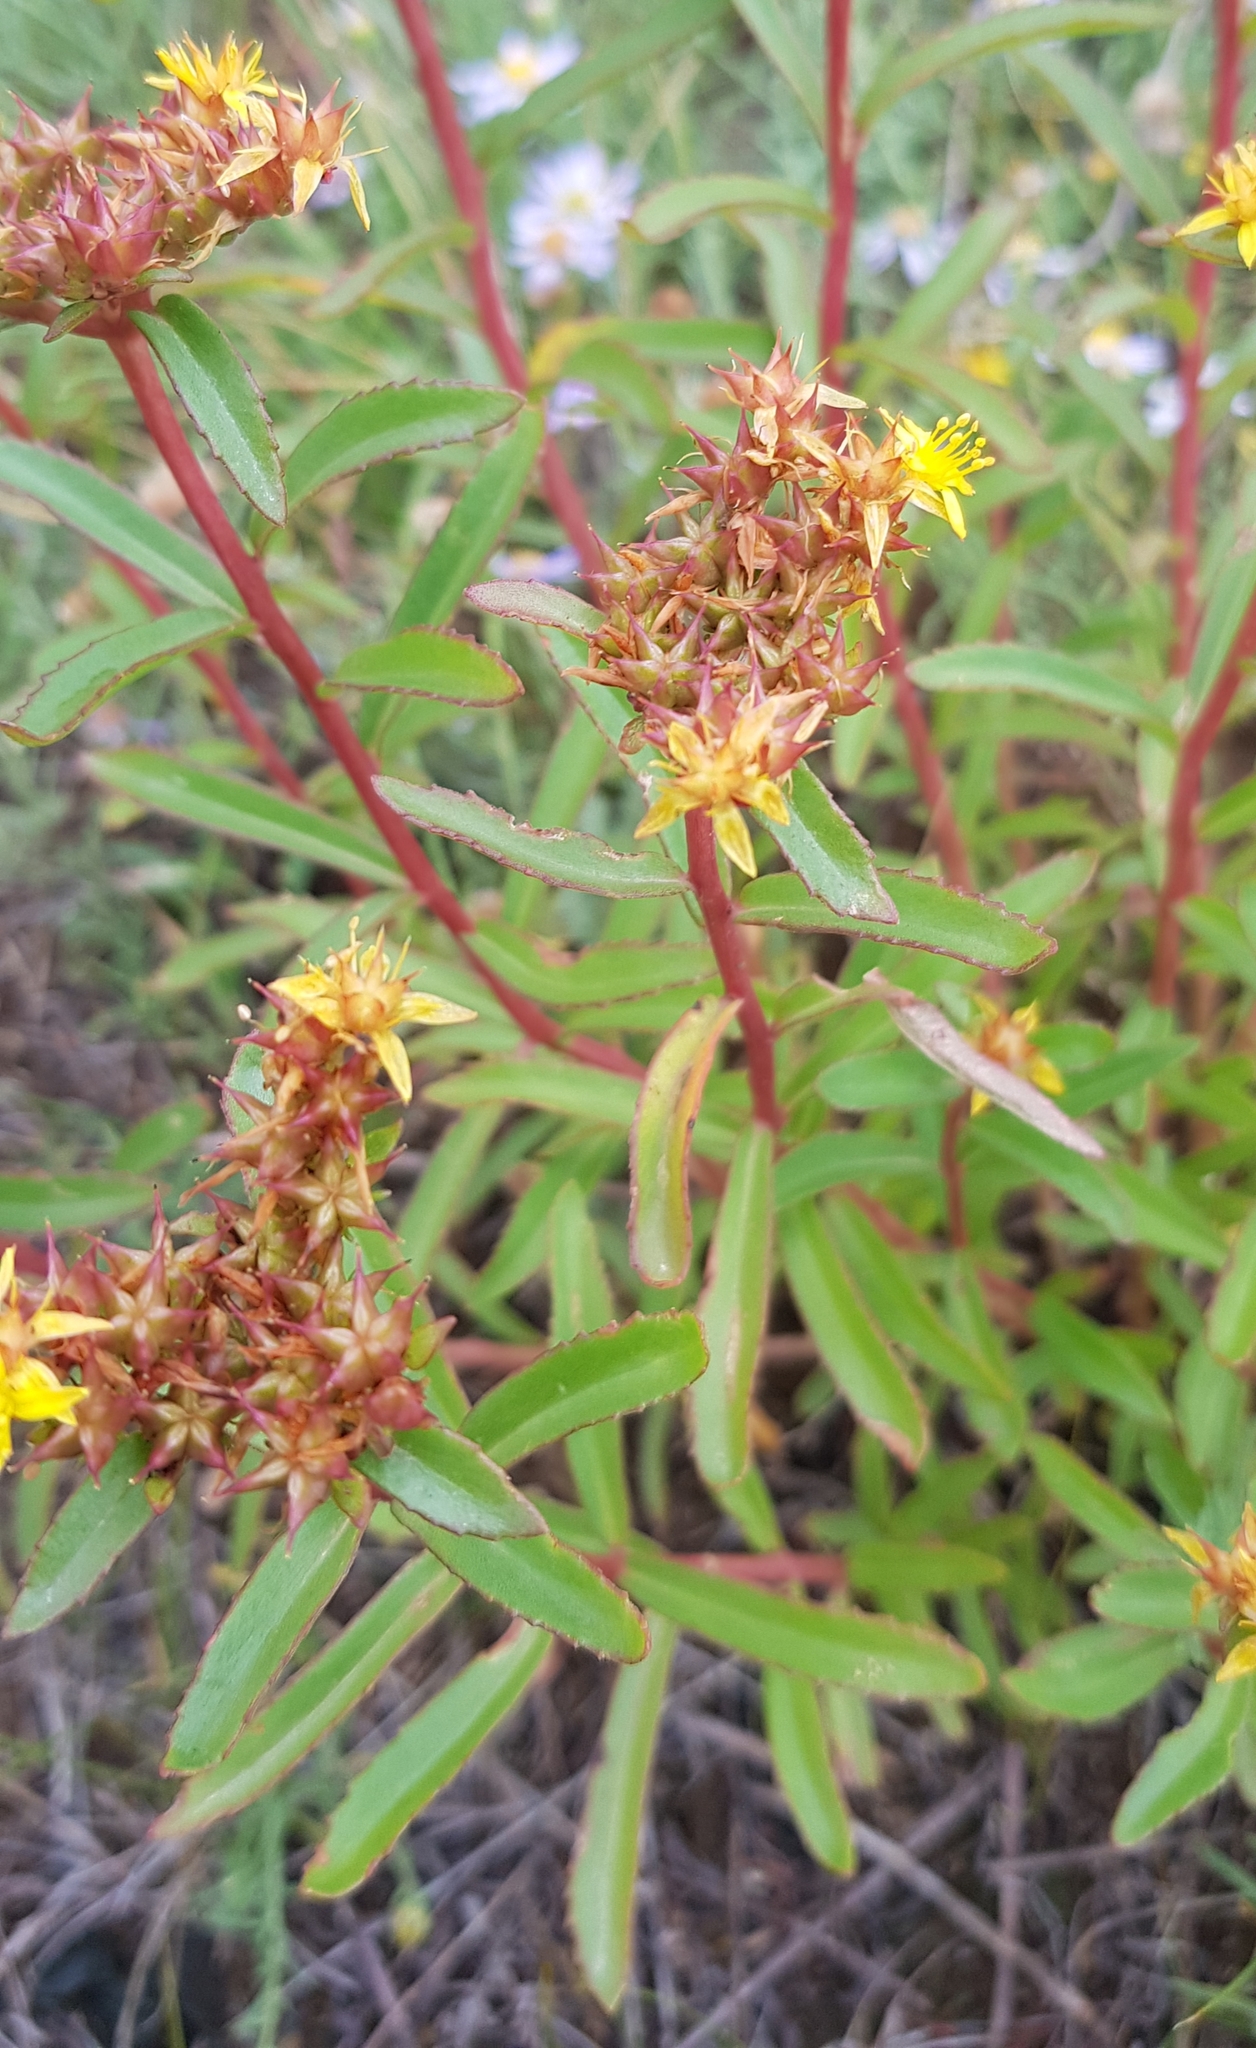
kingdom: Plantae
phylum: Tracheophyta
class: Magnoliopsida
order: Saxifragales
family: Crassulaceae
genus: Phedimus
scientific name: Phedimus aizoon
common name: Orpin aizoon
